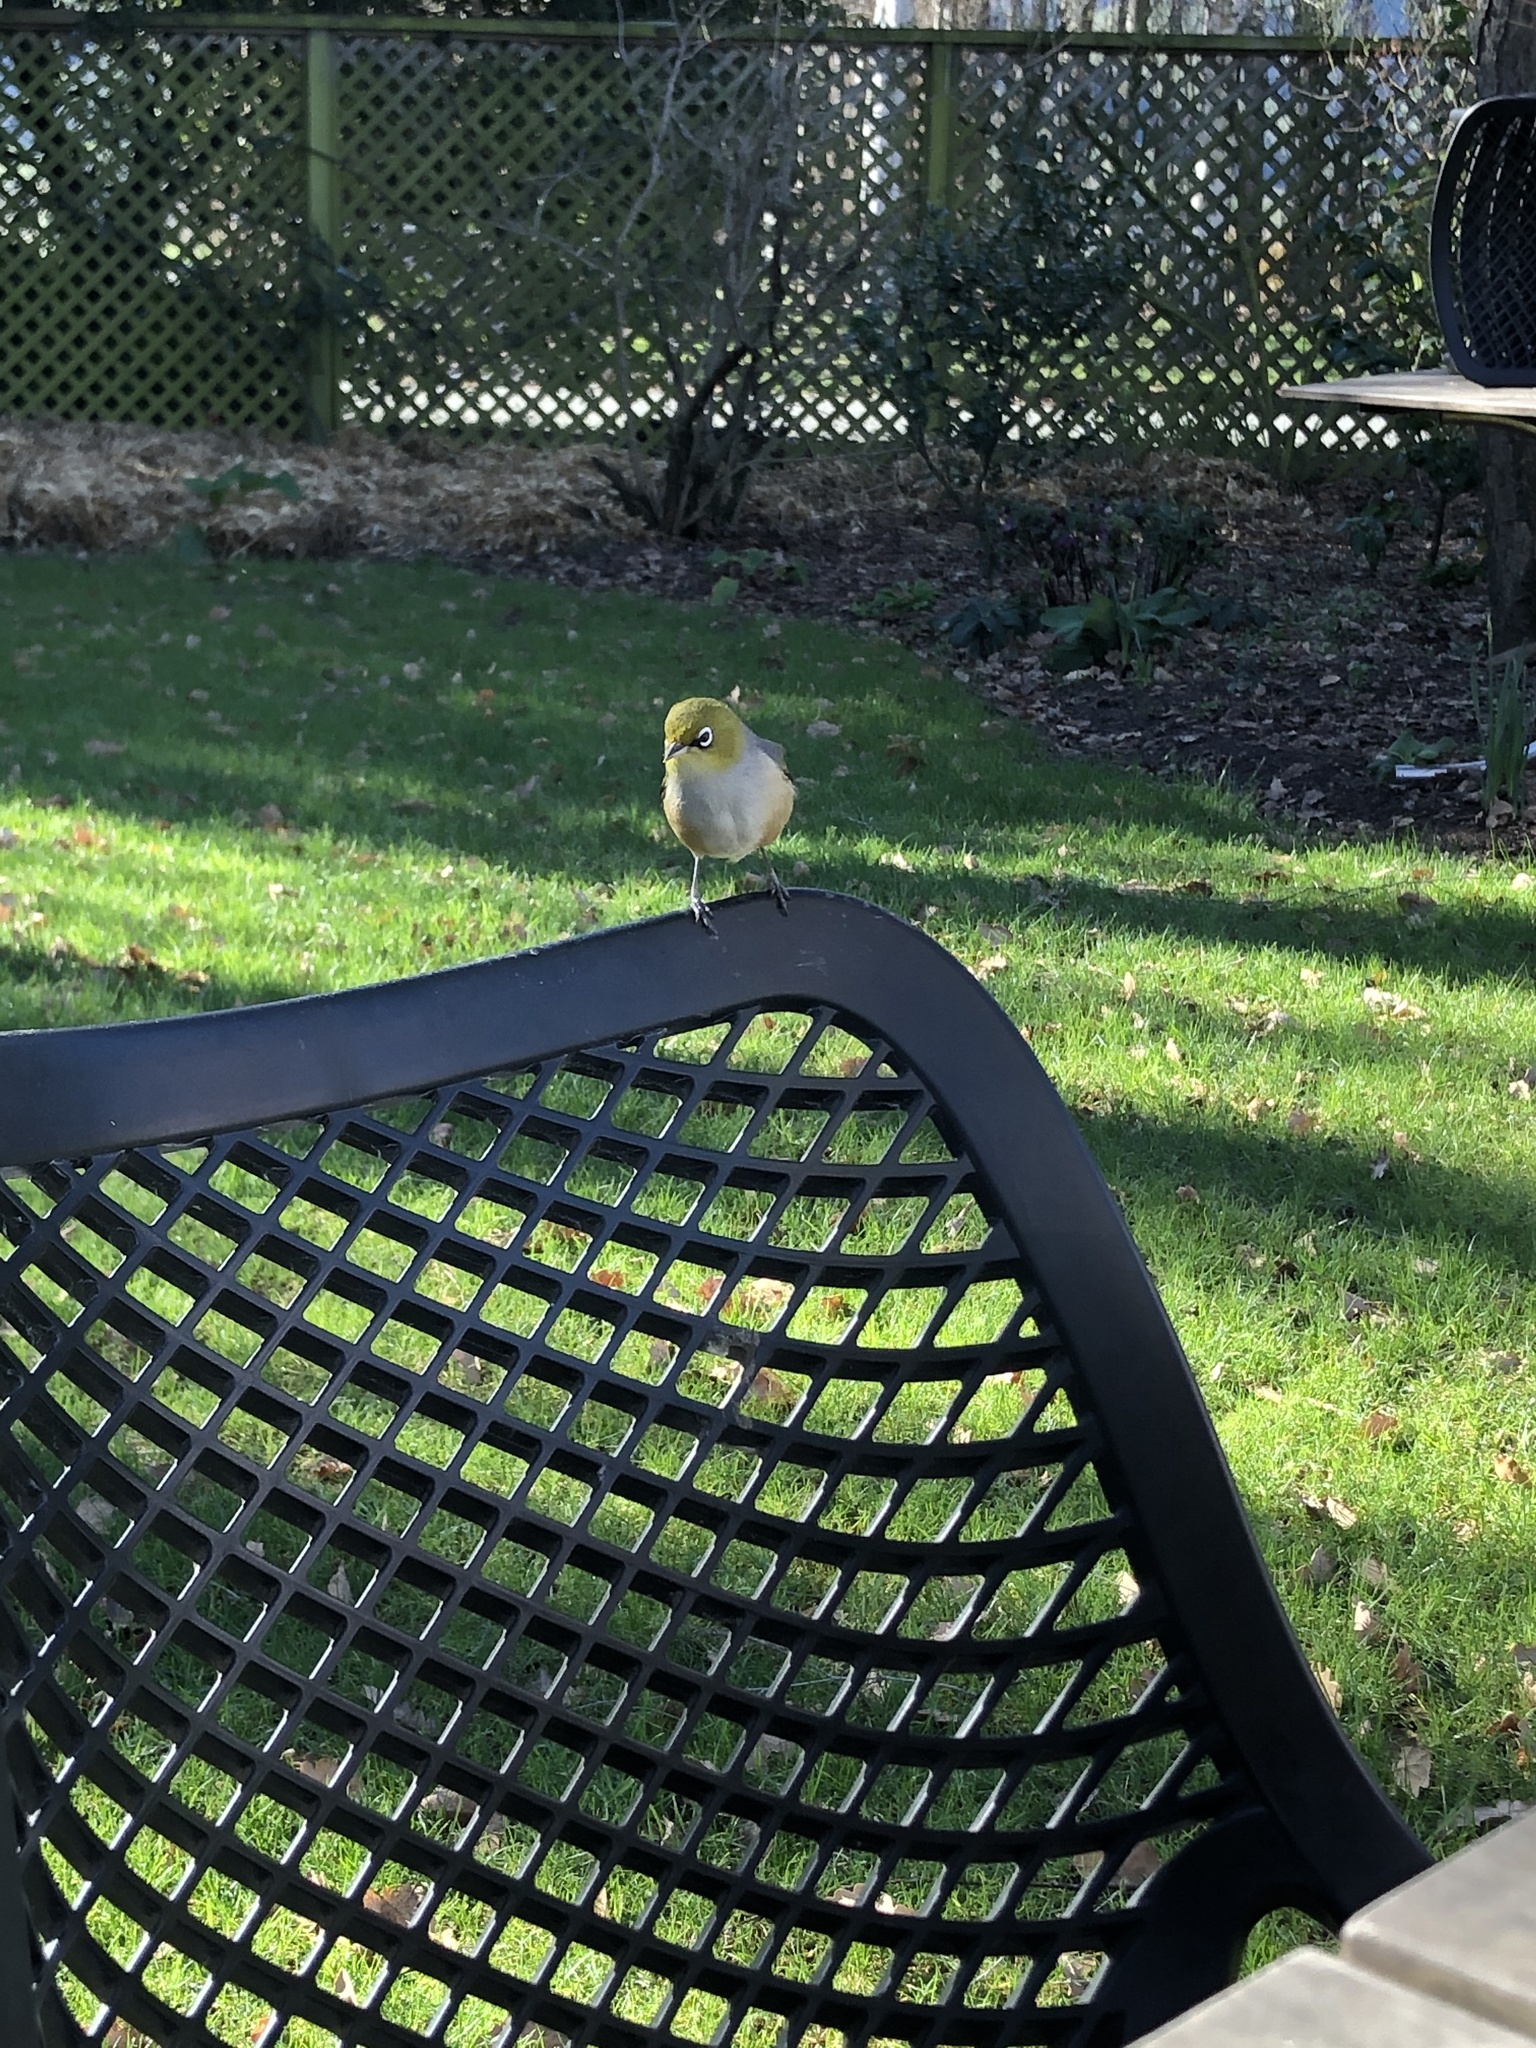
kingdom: Animalia
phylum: Chordata
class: Aves
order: Passeriformes
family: Zosteropidae
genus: Zosterops
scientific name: Zosterops lateralis
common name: Silvereye
